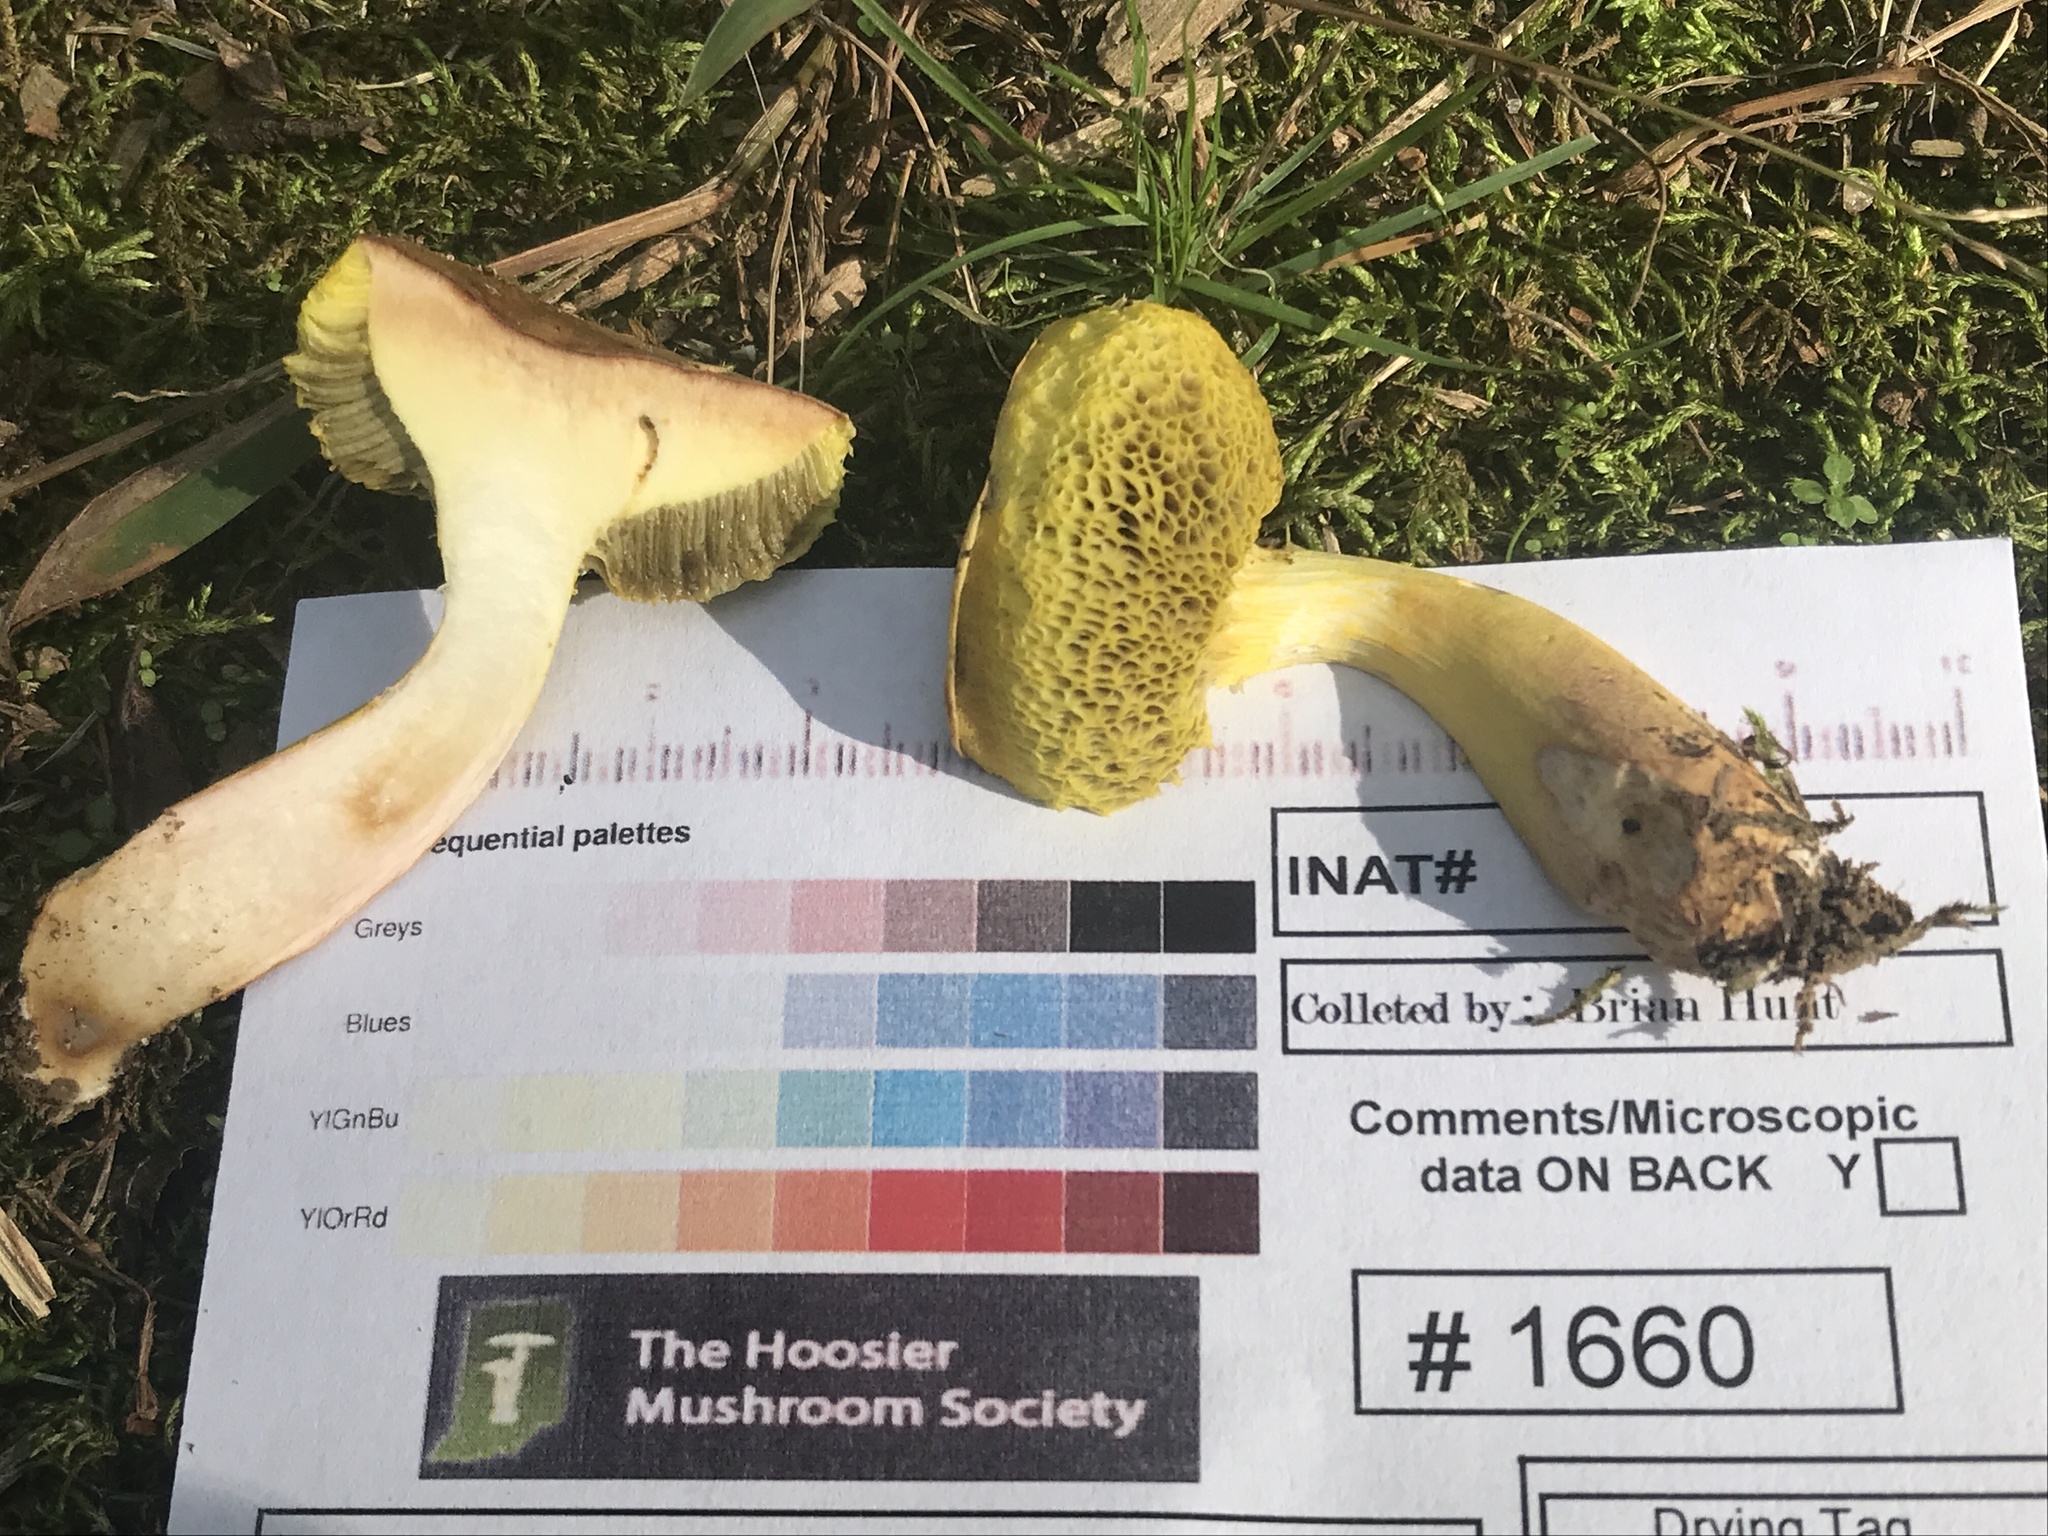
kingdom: Fungi
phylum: Basidiomycota
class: Agaricomycetes
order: Boletales
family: Boletaceae
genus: Aureoboletus
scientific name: Aureoboletus auriporus
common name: Sour gold-pored bolete
